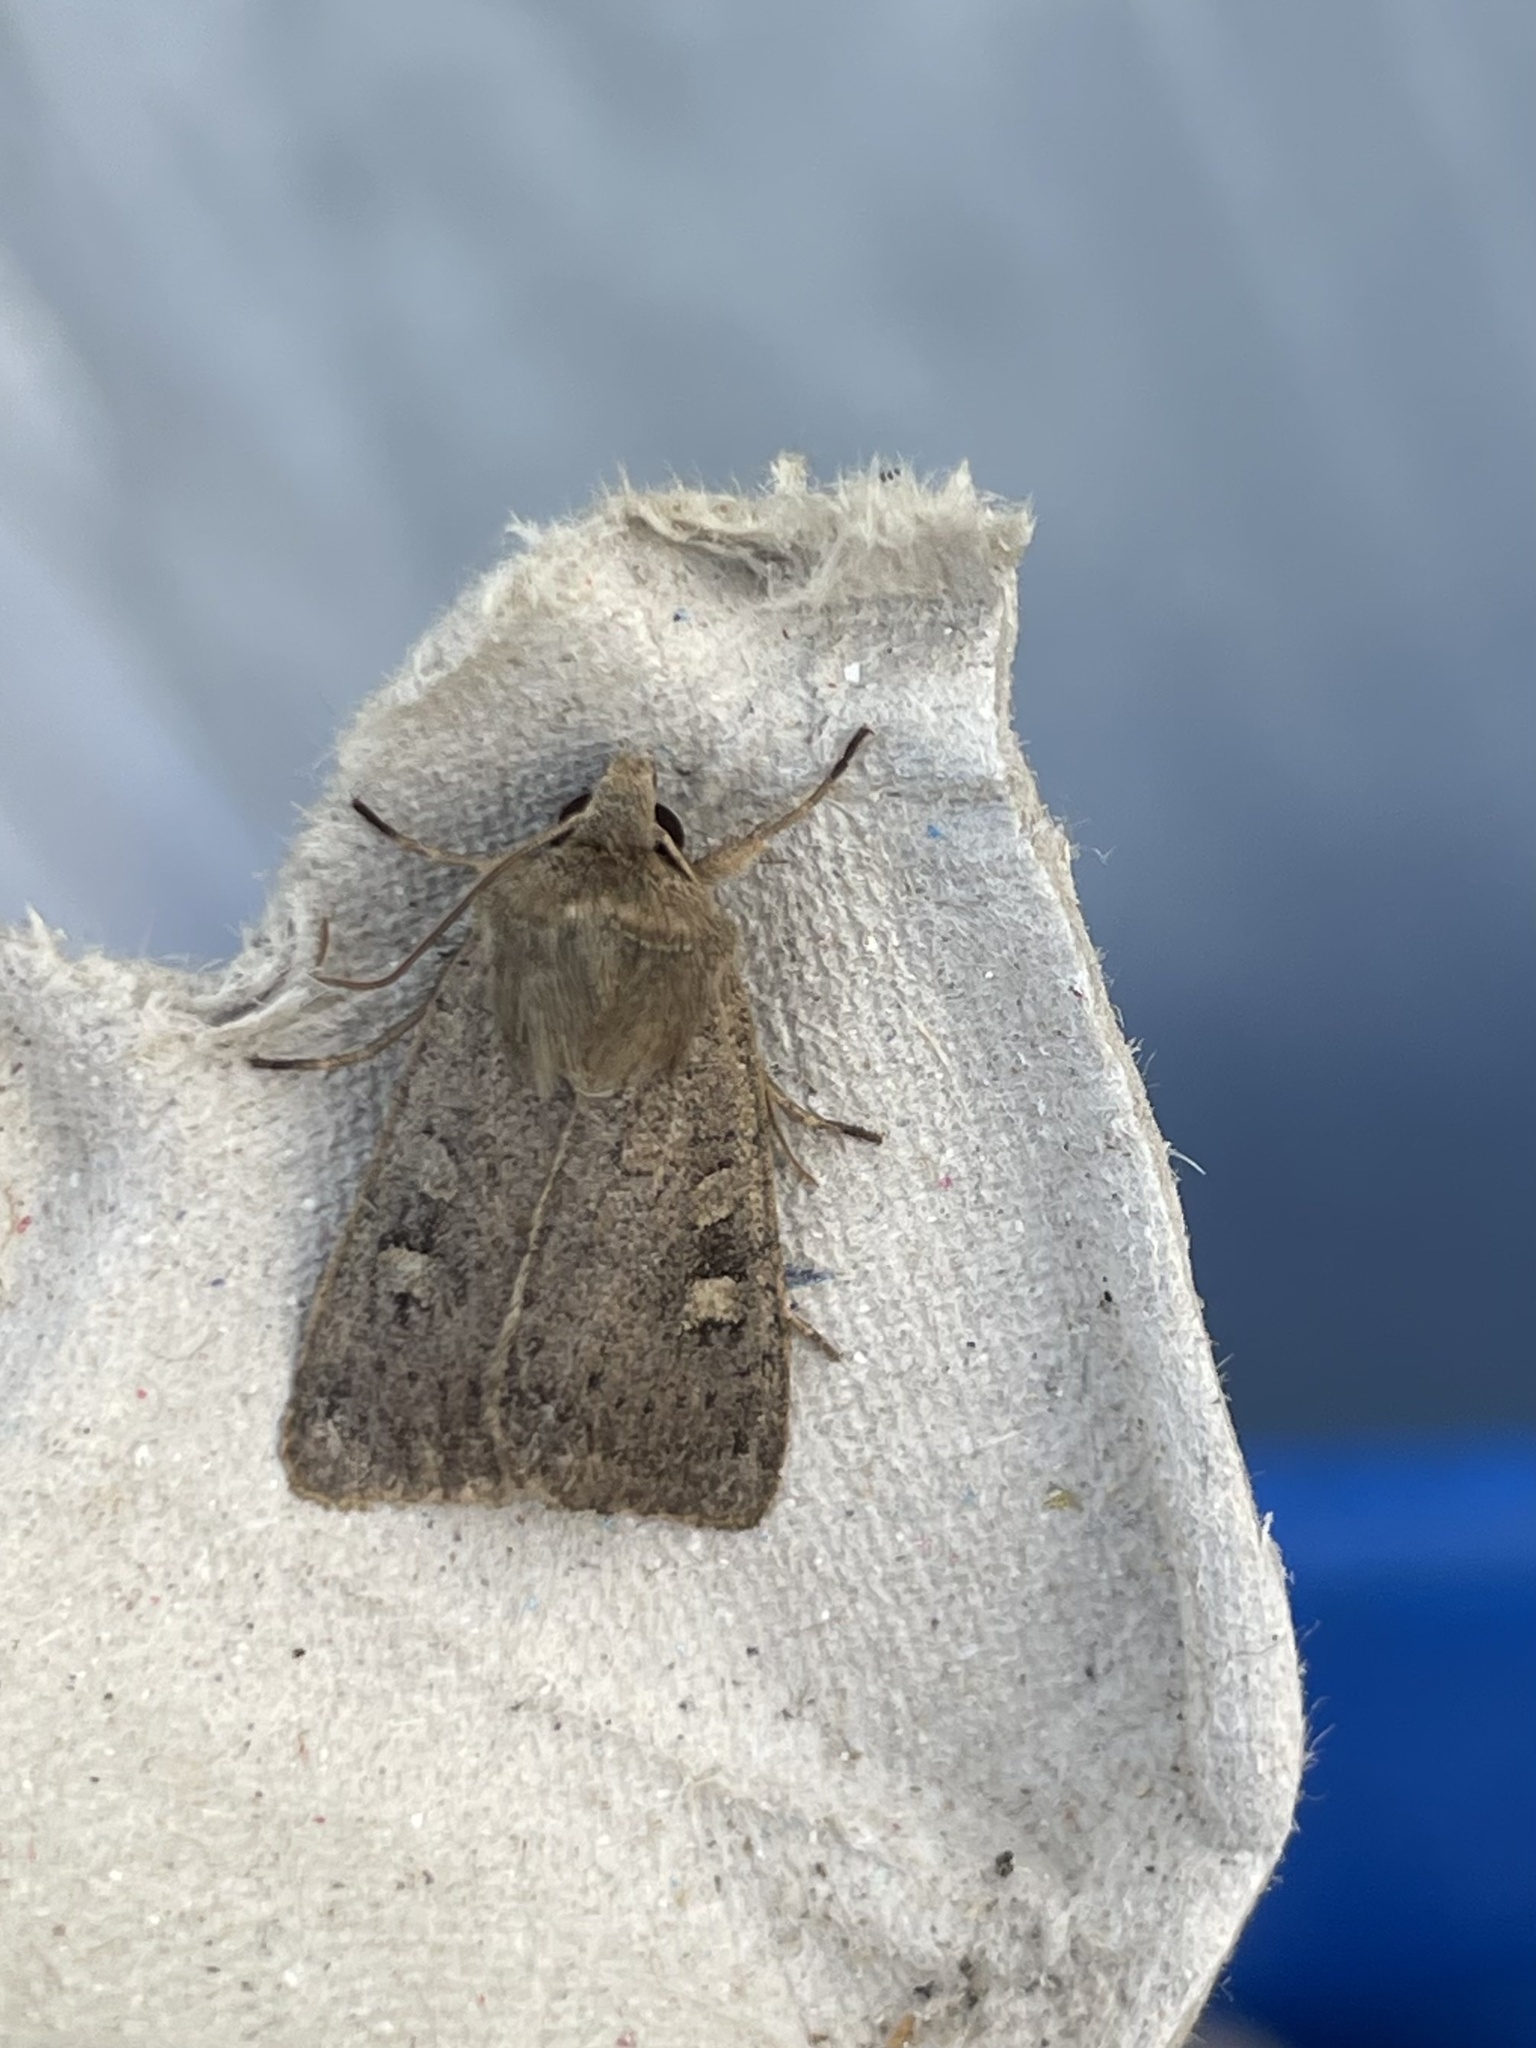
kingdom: Animalia
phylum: Arthropoda
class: Insecta
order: Lepidoptera
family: Noctuidae
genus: Xestia
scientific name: Xestia xanthographa
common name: Square-spot rustic
